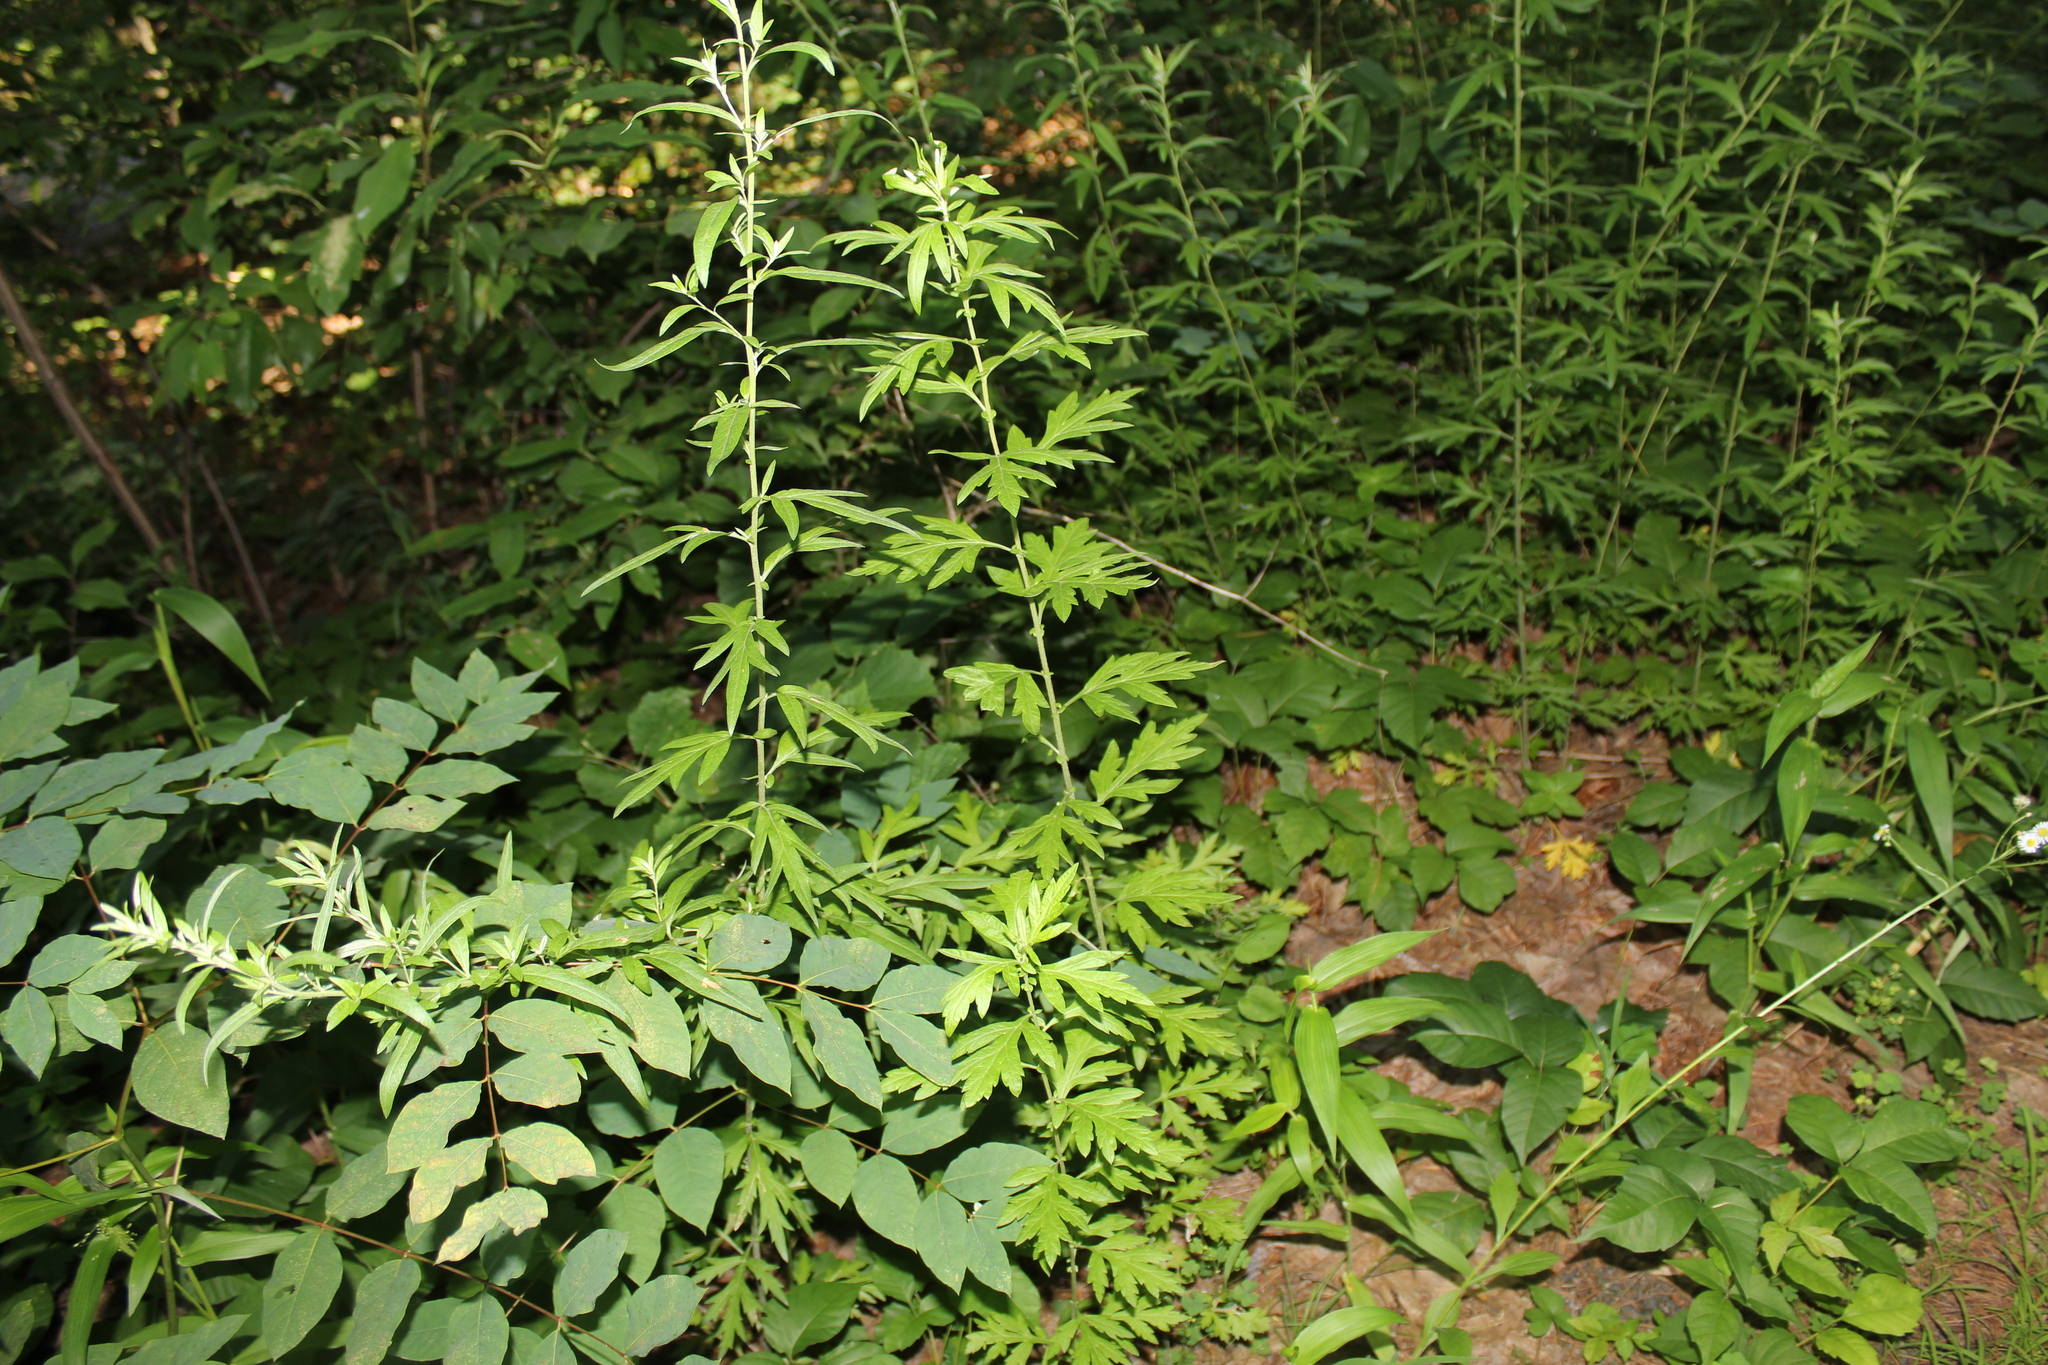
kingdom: Plantae
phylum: Tracheophyta
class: Magnoliopsida
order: Asterales
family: Asteraceae
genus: Artemisia
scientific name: Artemisia vulgaris
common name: Mugwort
